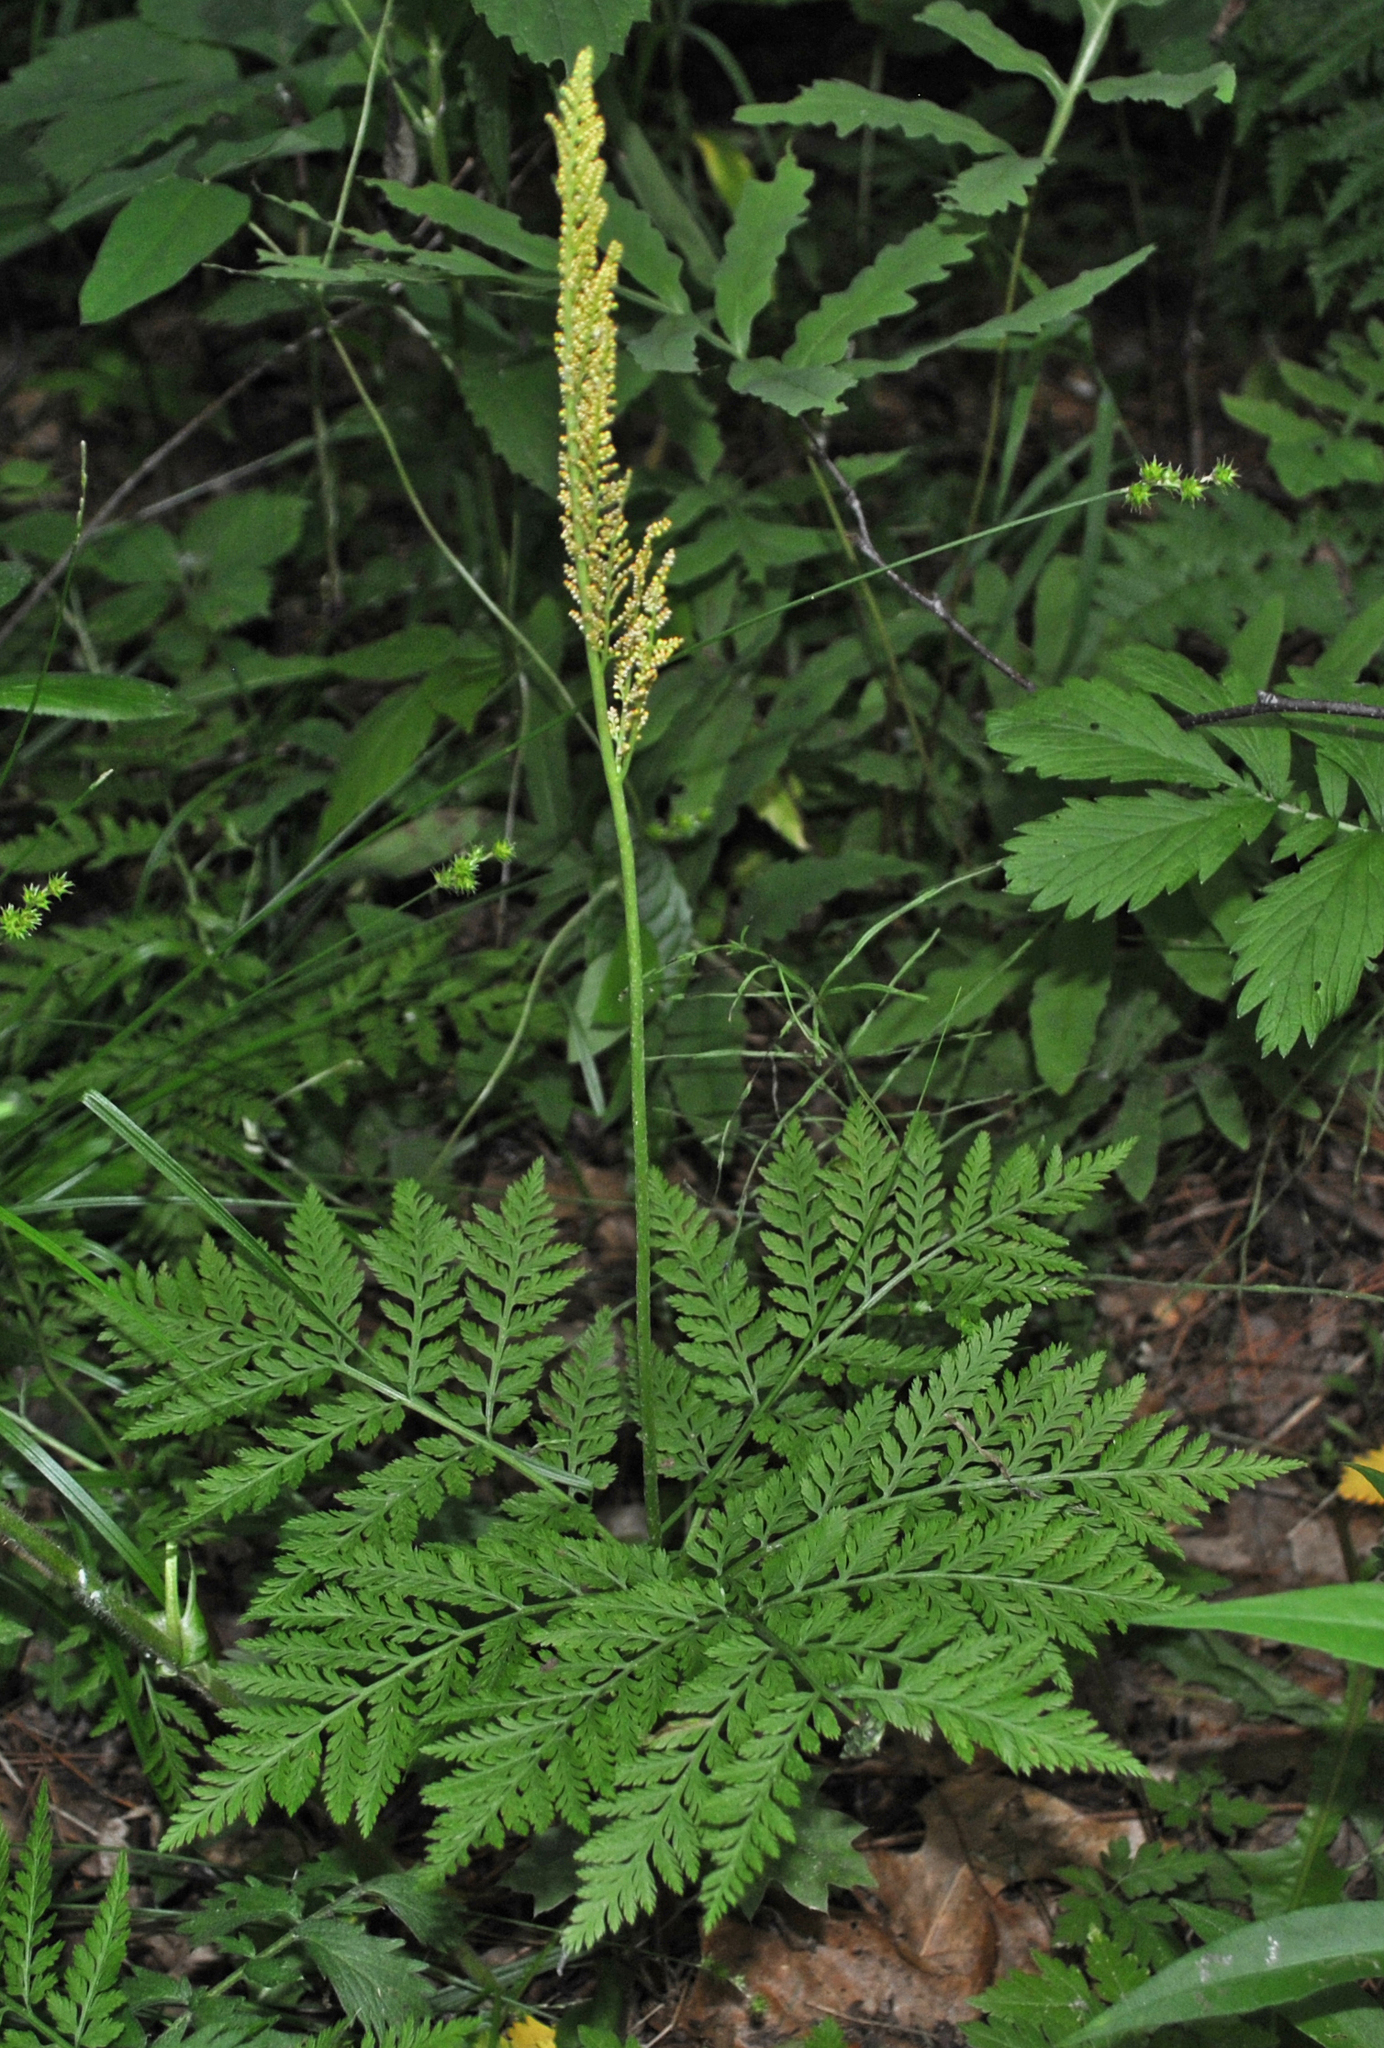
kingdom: Plantae
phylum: Tracheophyta
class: Polypodiopsida
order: Ophioglossales
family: Ophioglossaceae
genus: Botrypus
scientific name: Botrypus virginianus
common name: Common grapefern
